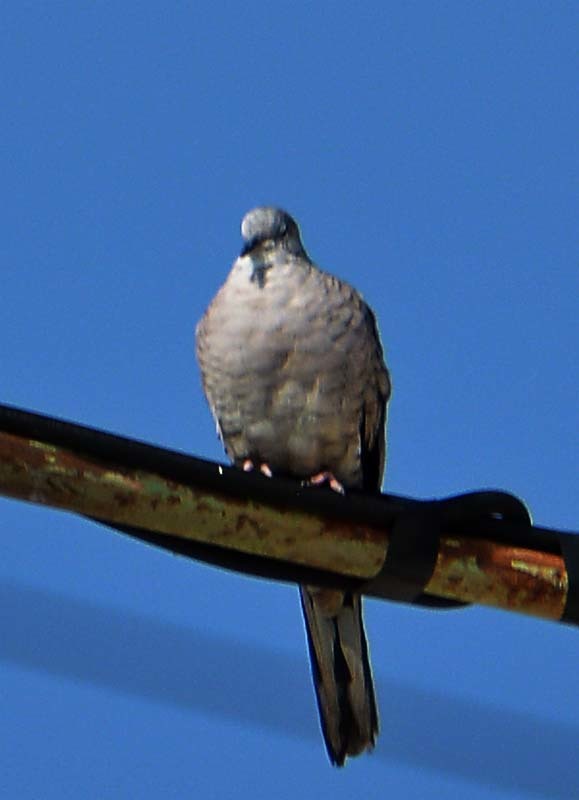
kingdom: Animalia
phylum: Chordata
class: Aves
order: Columbiformes
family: Columbidae
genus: Columbina
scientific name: Columbina inca
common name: Inca dove
